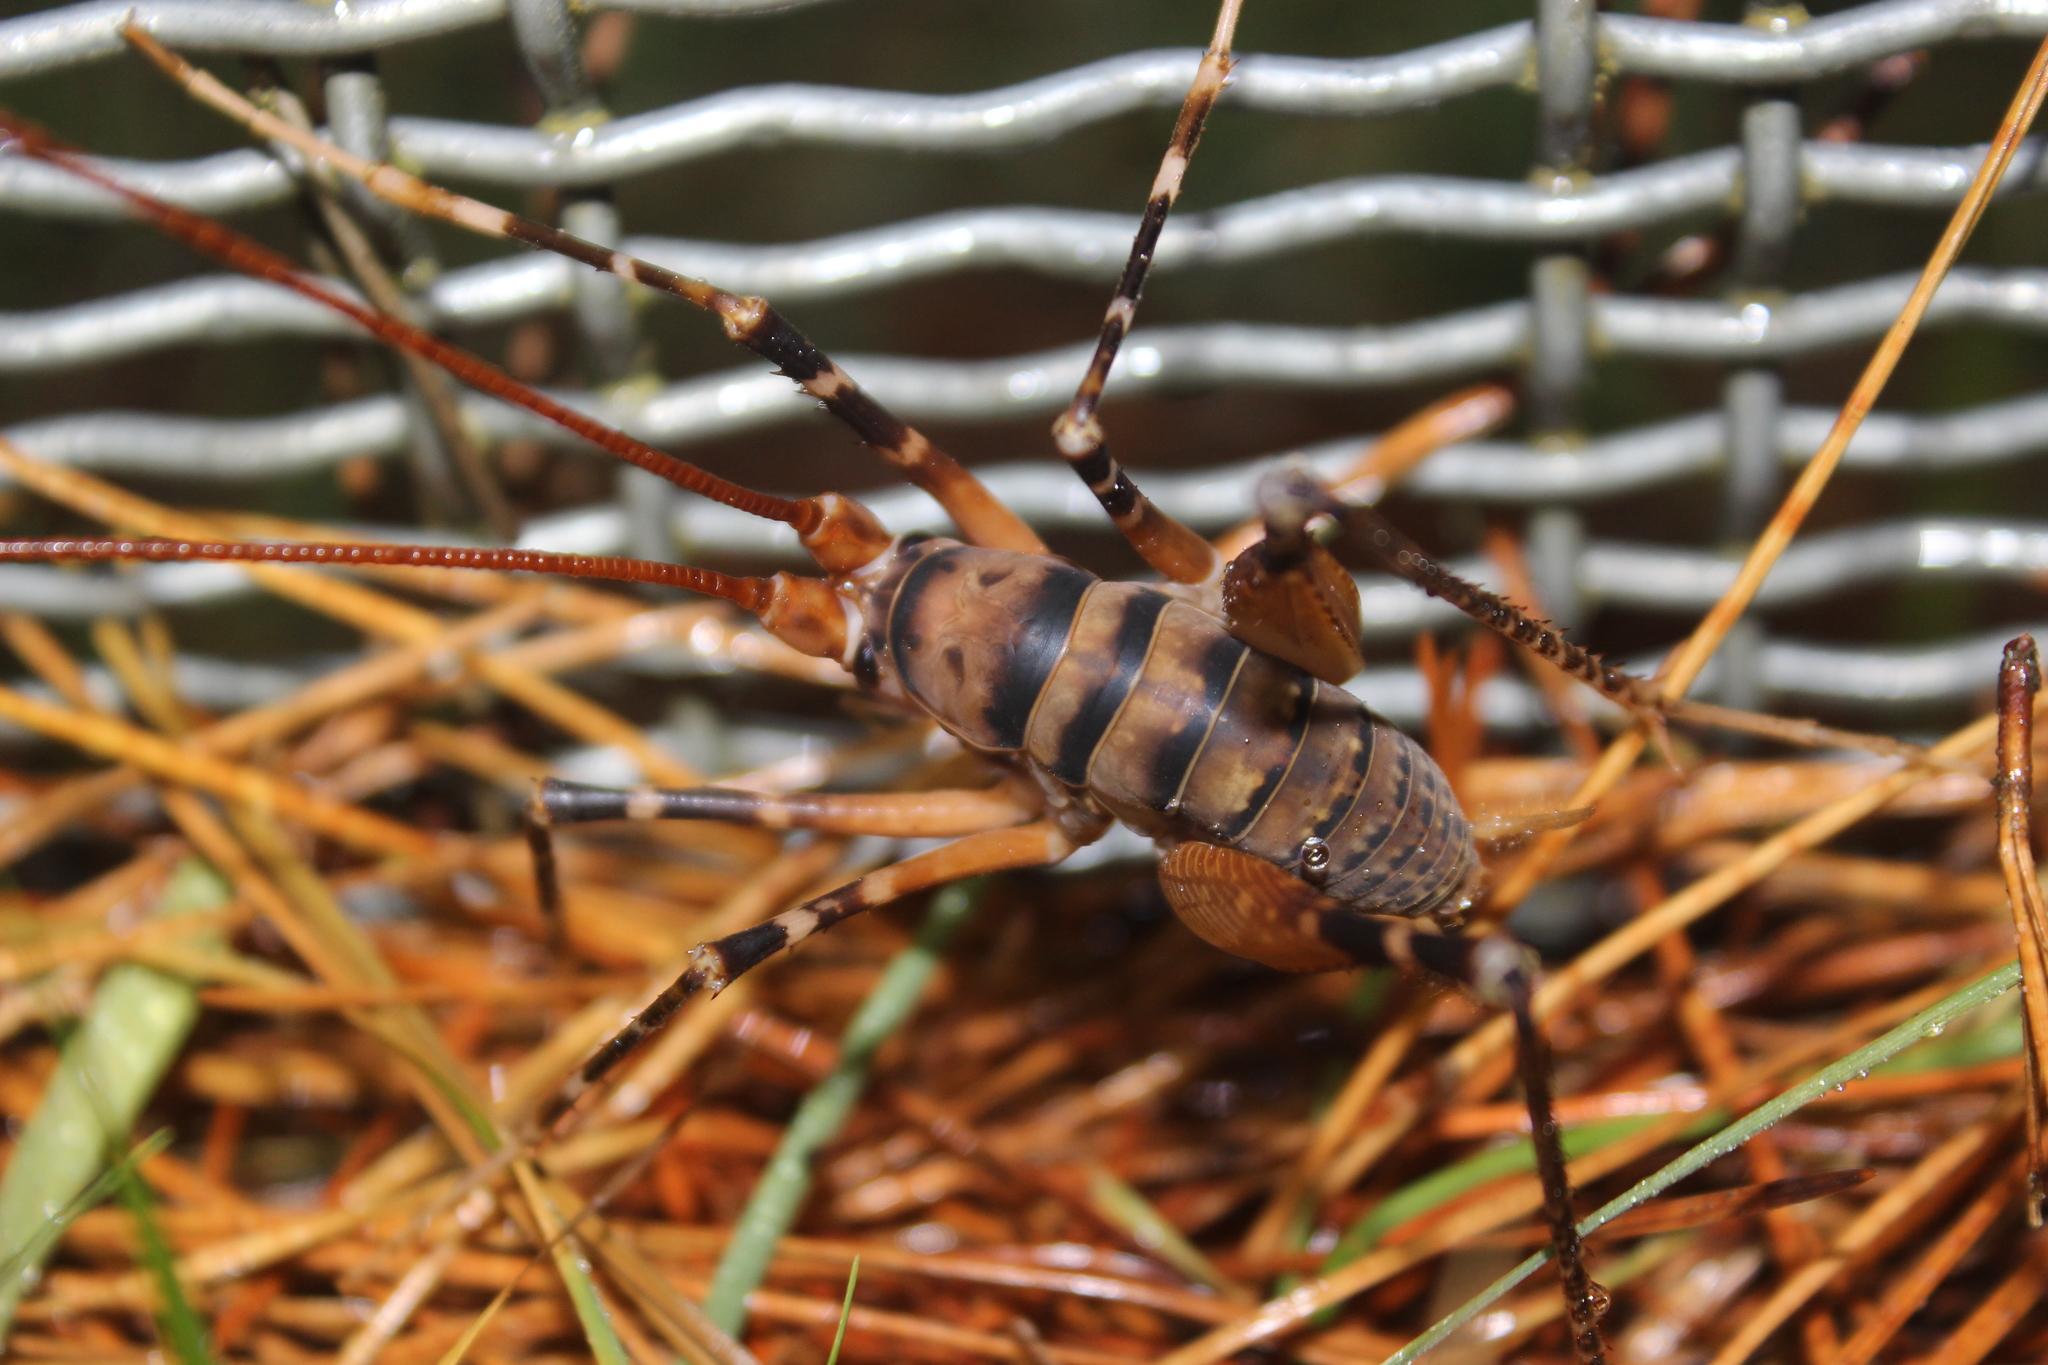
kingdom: Animalia
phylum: Arthropoda
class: Insecta
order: Orthoptera
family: Rhaphidophoridae
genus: Pachyrhamma
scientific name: Pachyrhamma edwardsii
